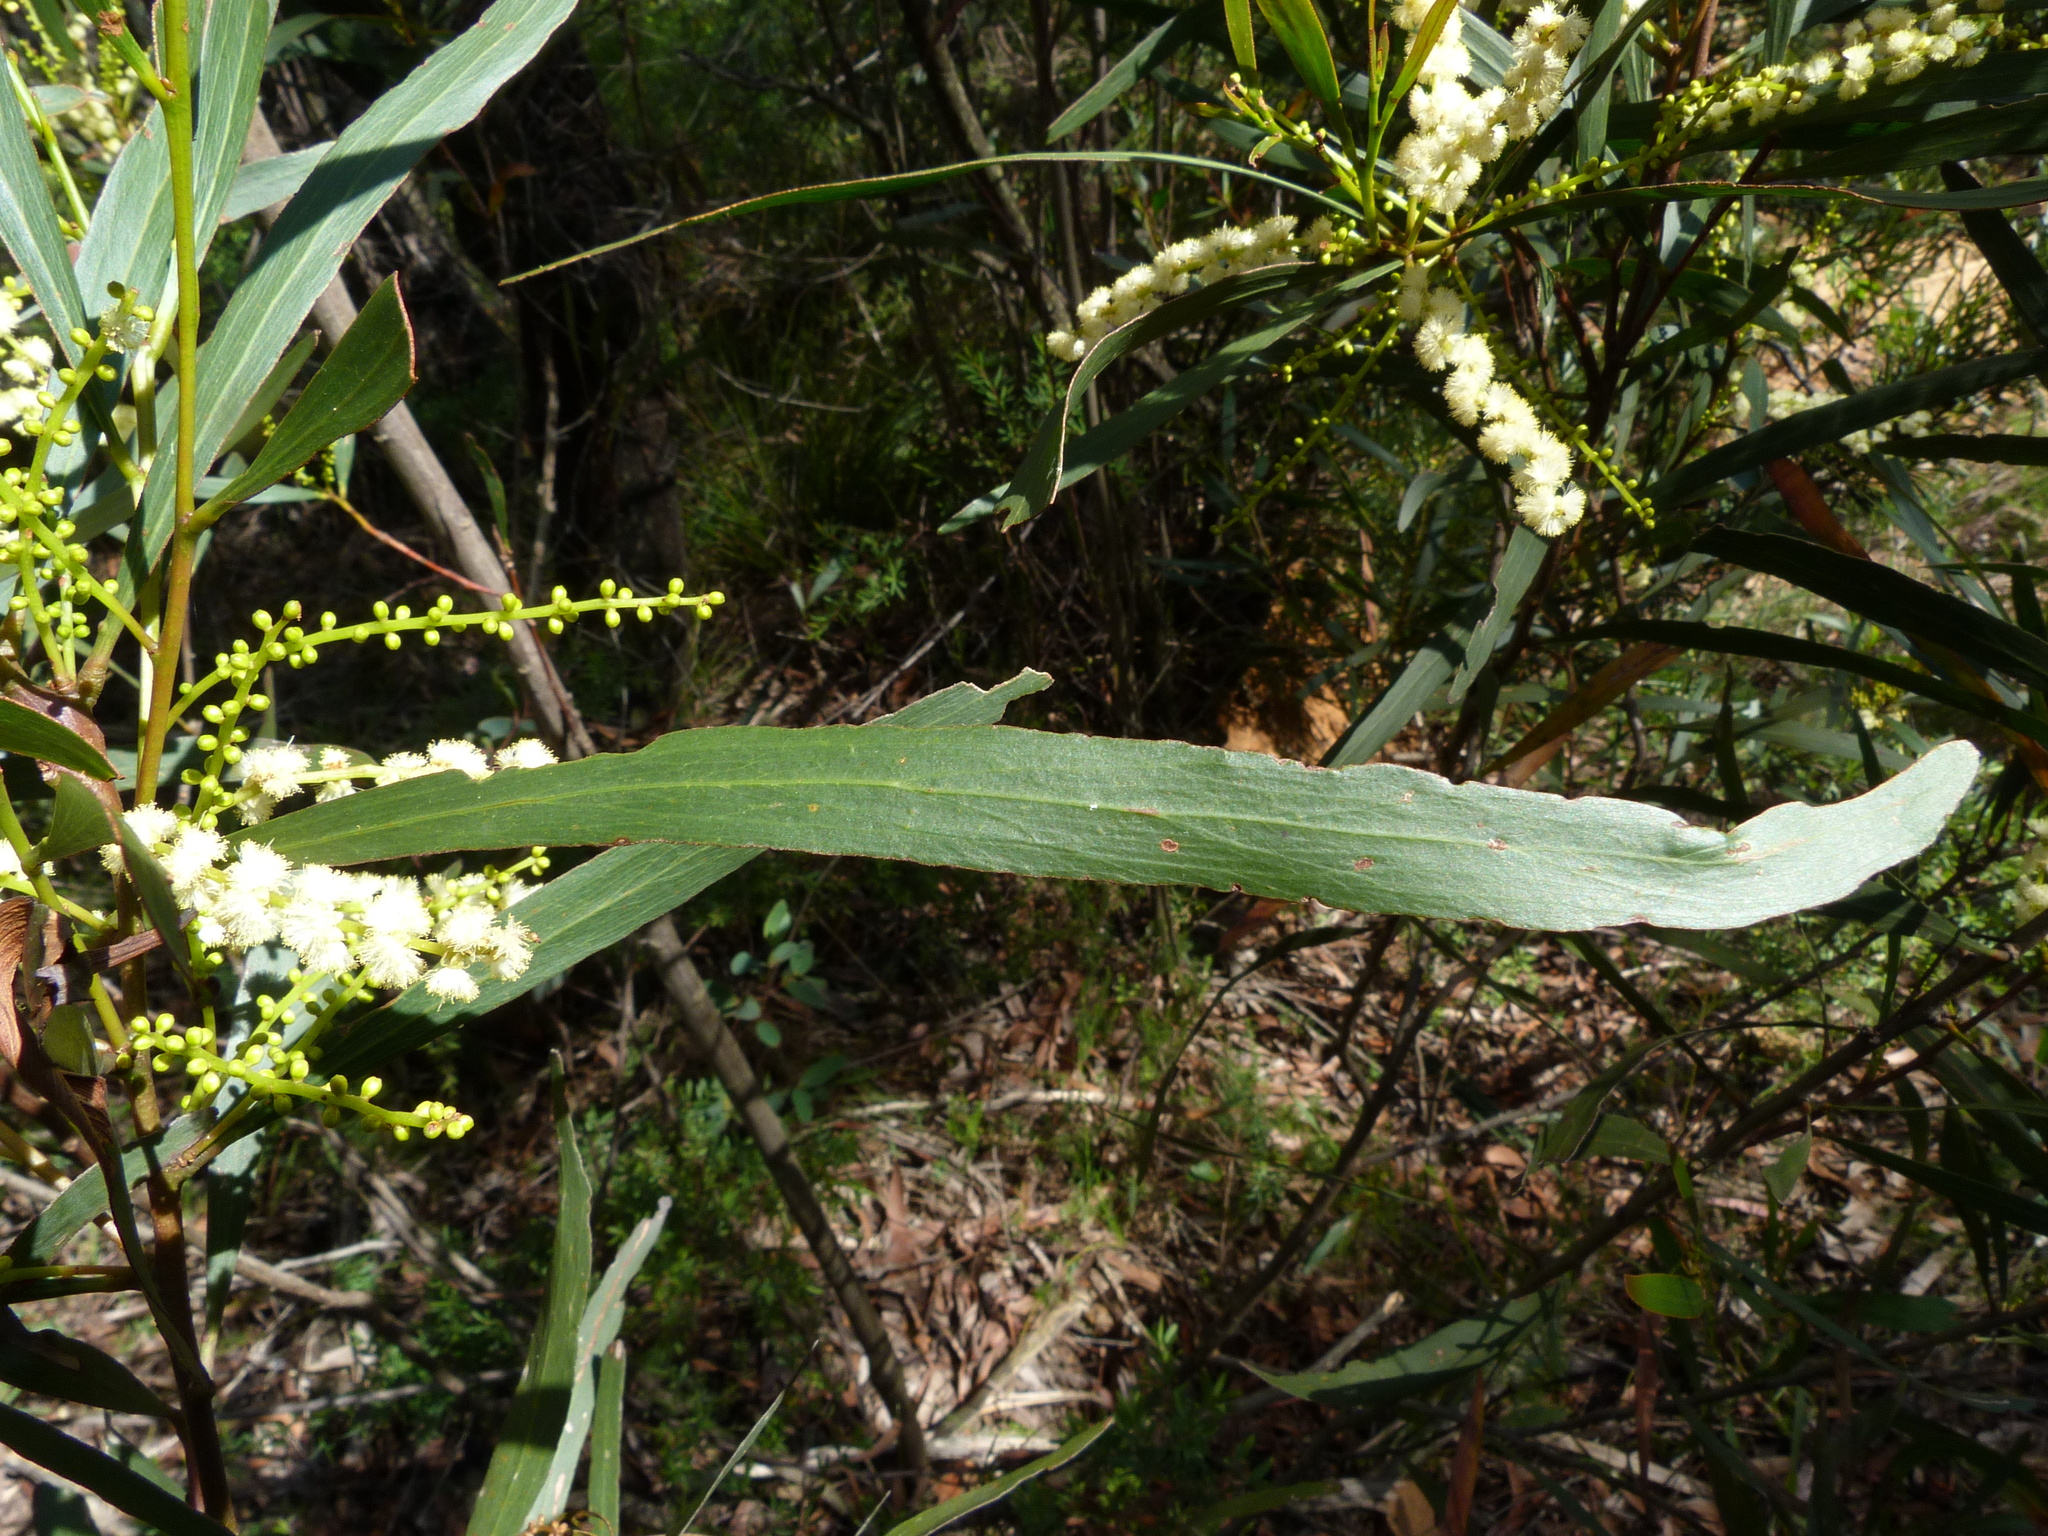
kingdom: Plantae
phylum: Tracheophyta
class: Magnoliopsida
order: Fabales
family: Fabaceae
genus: Acacia
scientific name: Acacia obtusifolia
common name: Stiff-leaf wattle
